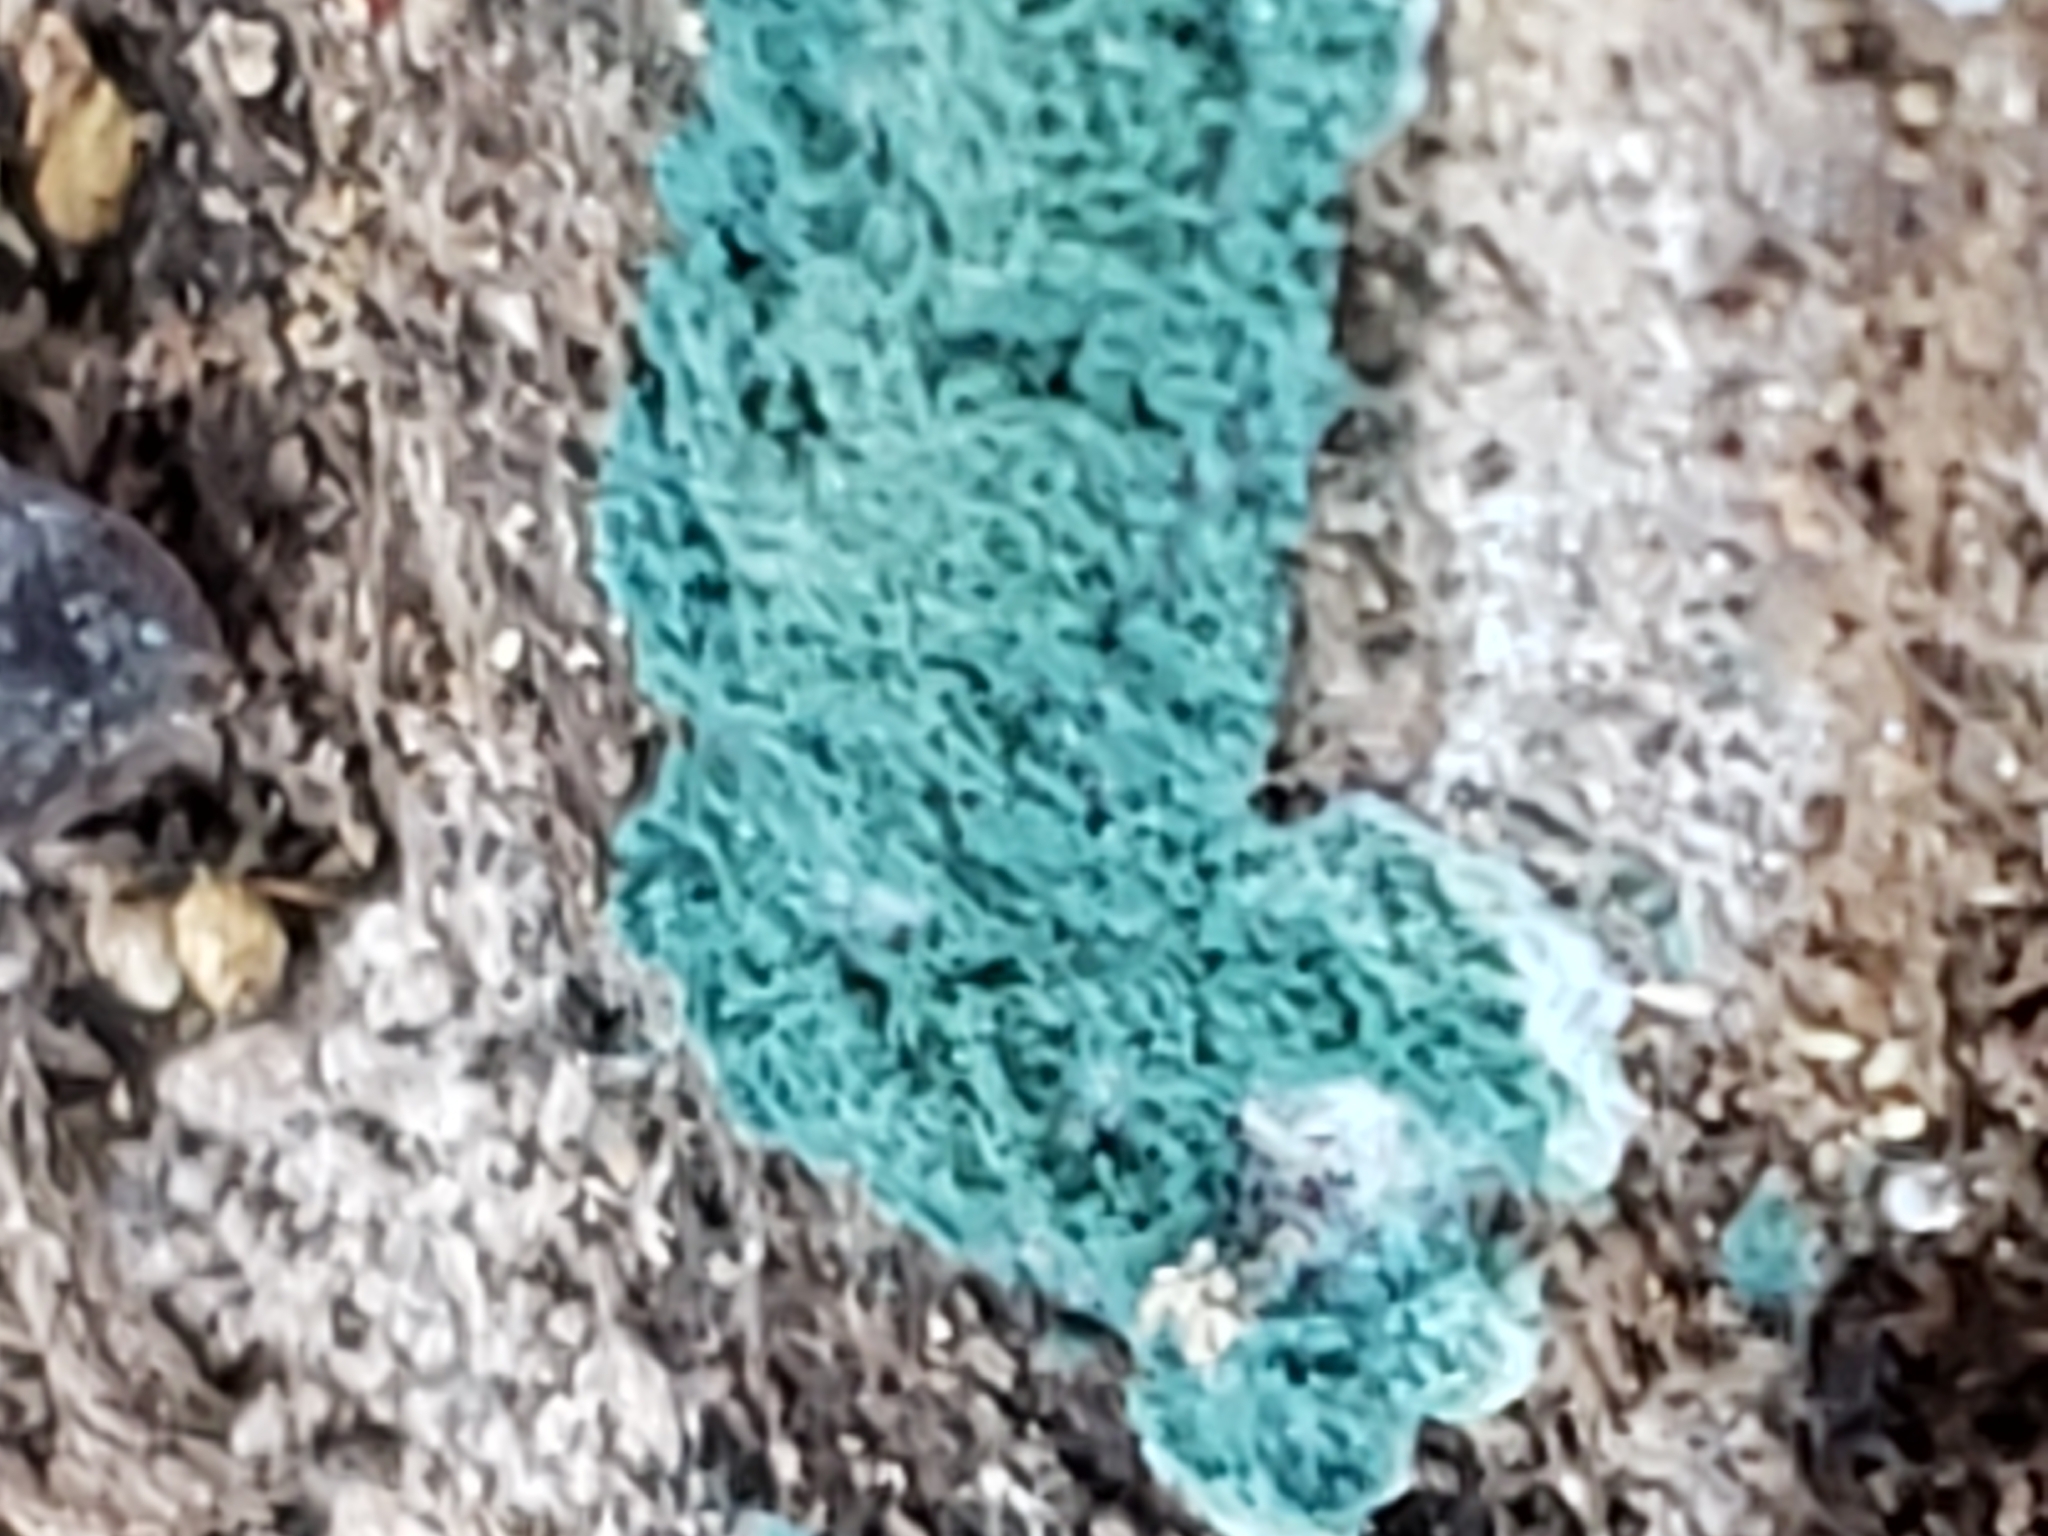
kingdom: Fungi
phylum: Ascomycota
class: Sordariomycetes
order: Hypocreales
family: Hypocreaceae
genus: Trichoderma
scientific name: Trichoderma viride
